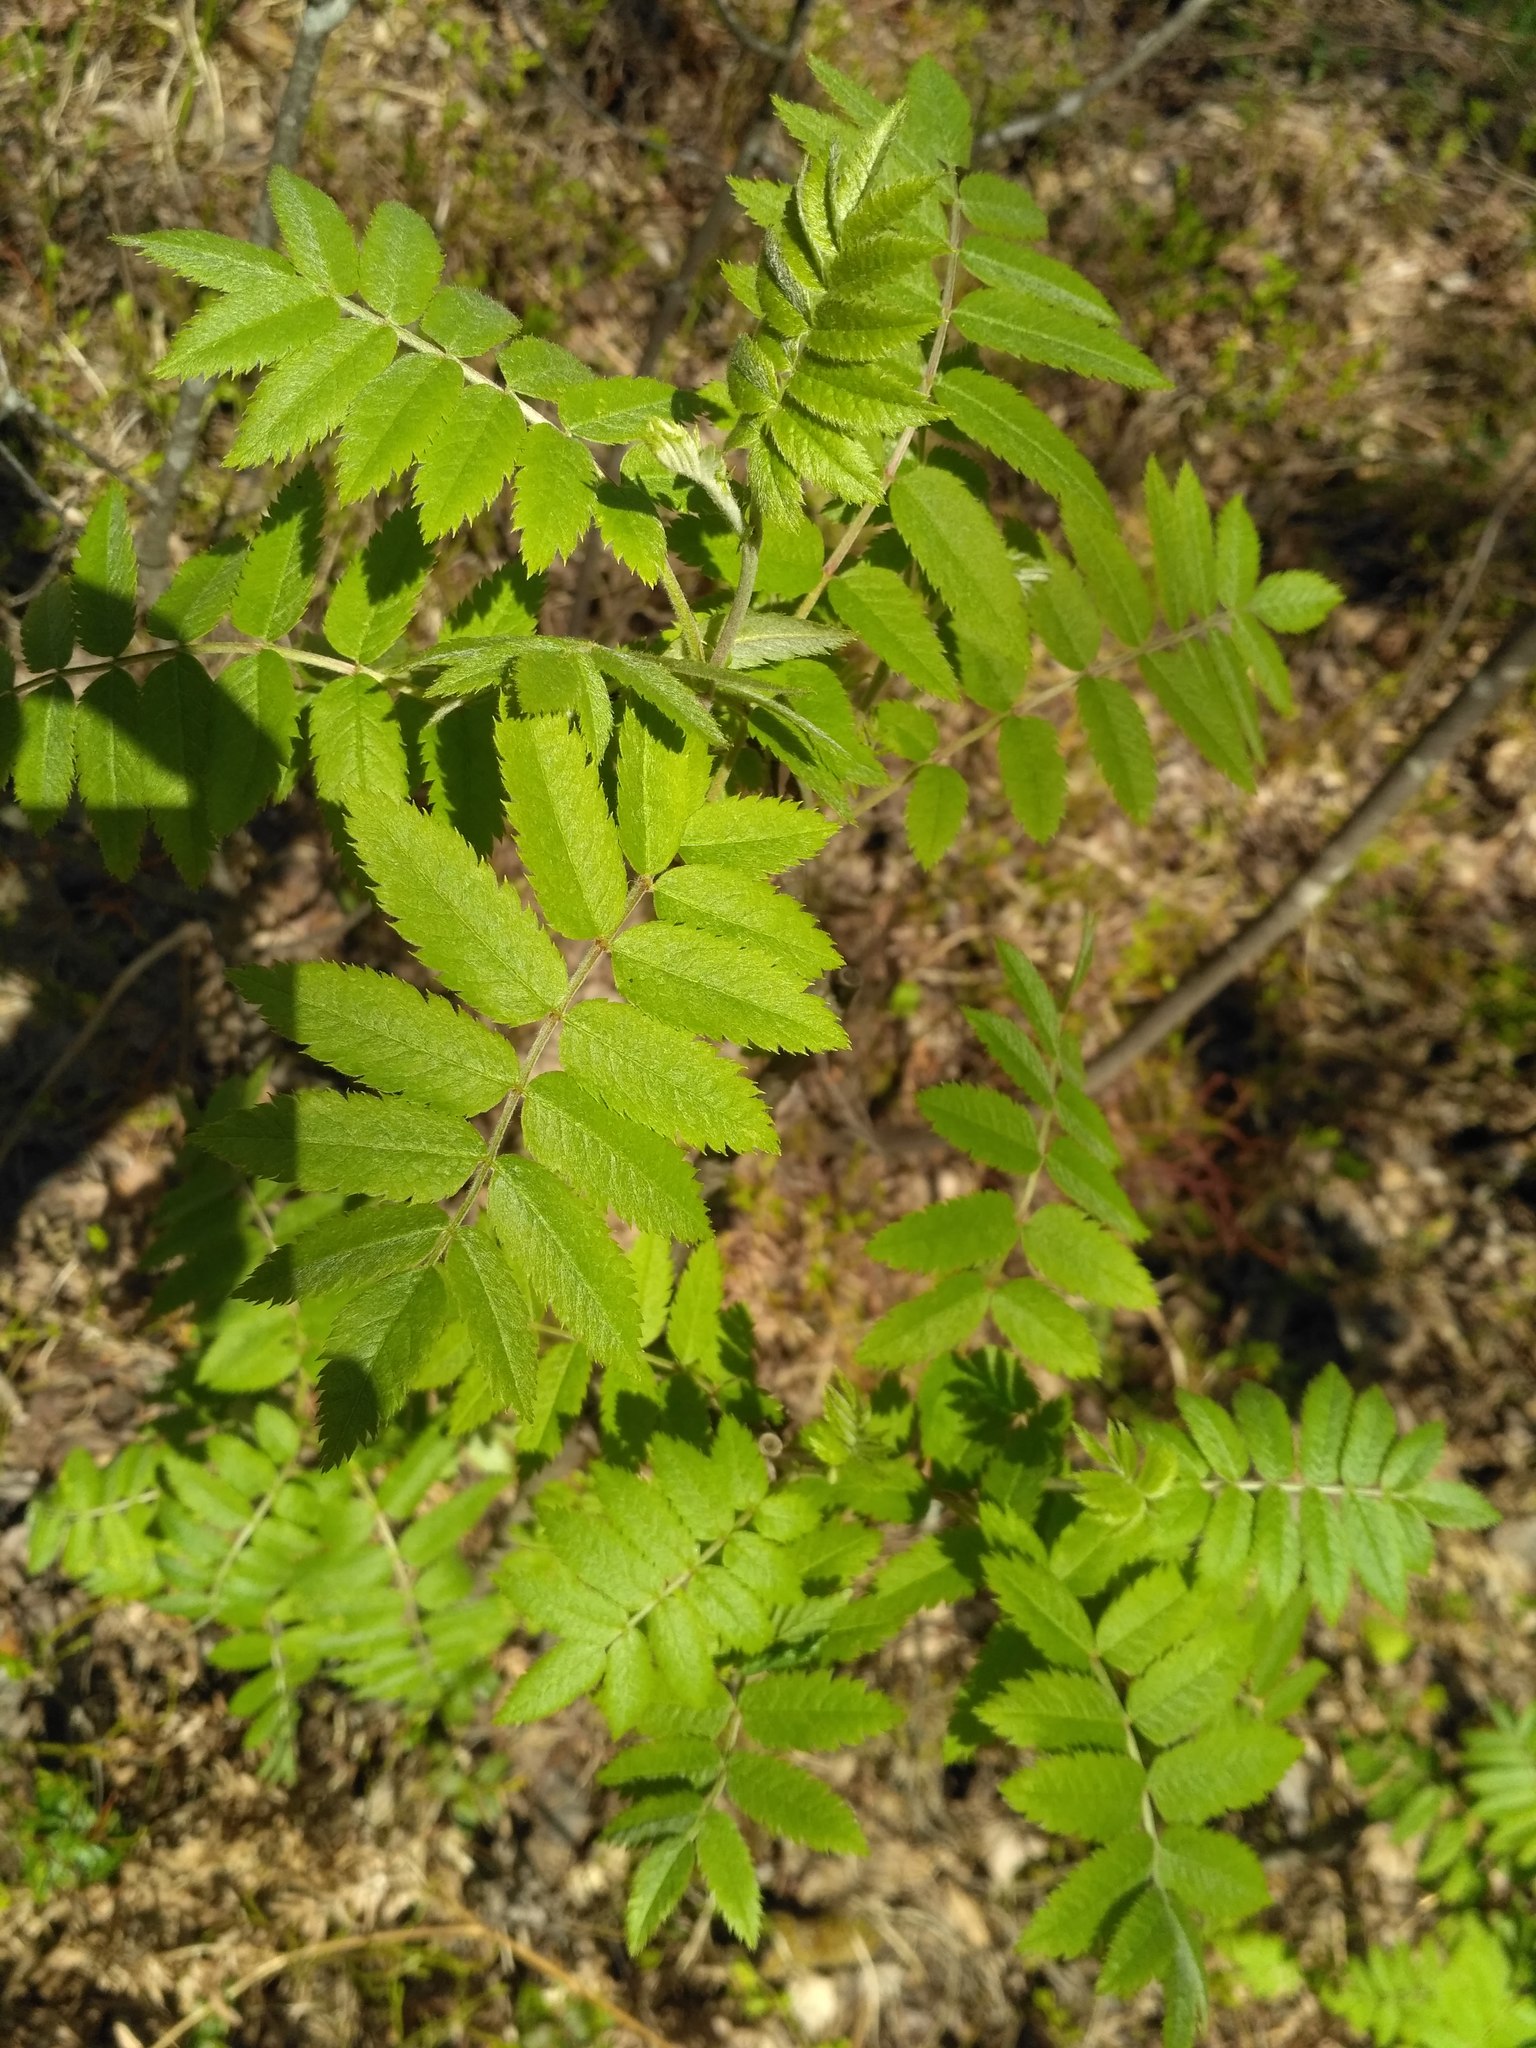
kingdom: Plantae
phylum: Tracheophyta
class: Magnoliopsida
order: Rosales
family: Rosaceae
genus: Sorbus
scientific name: Sorbus aucuparia
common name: Rowan
